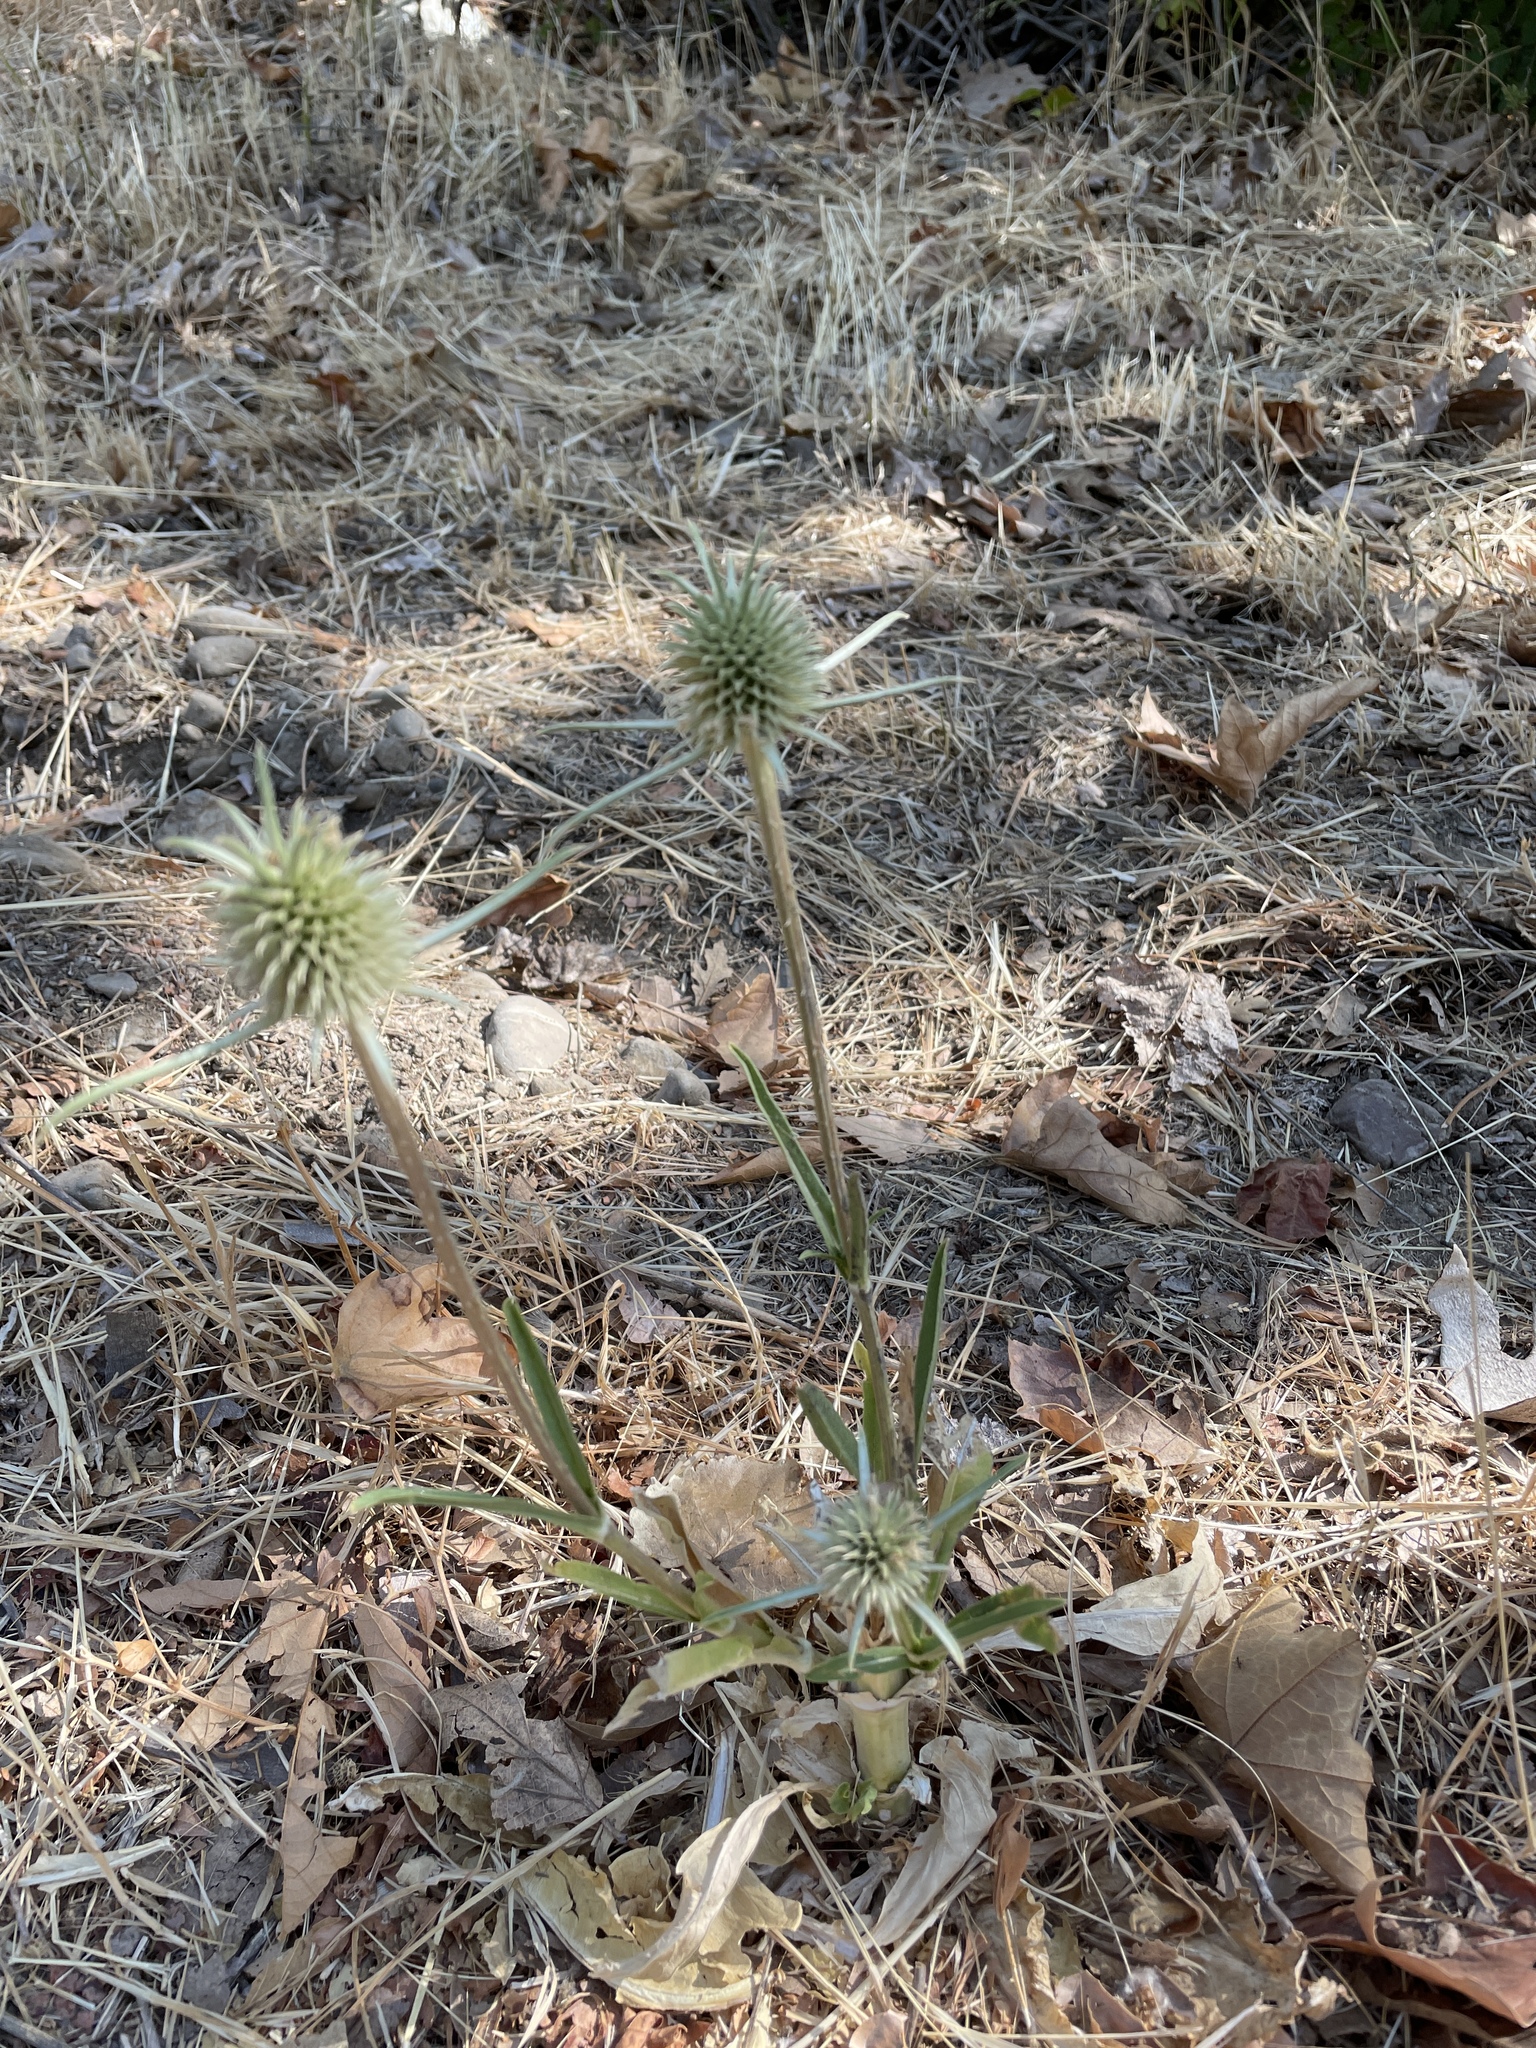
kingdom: Plantae
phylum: Tracheophyta
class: Magnoliopsida
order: Dipsacales
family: Caprifoliaceae
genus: Dipsacus
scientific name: Dipsacus sativus
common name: Fuller's teasel
